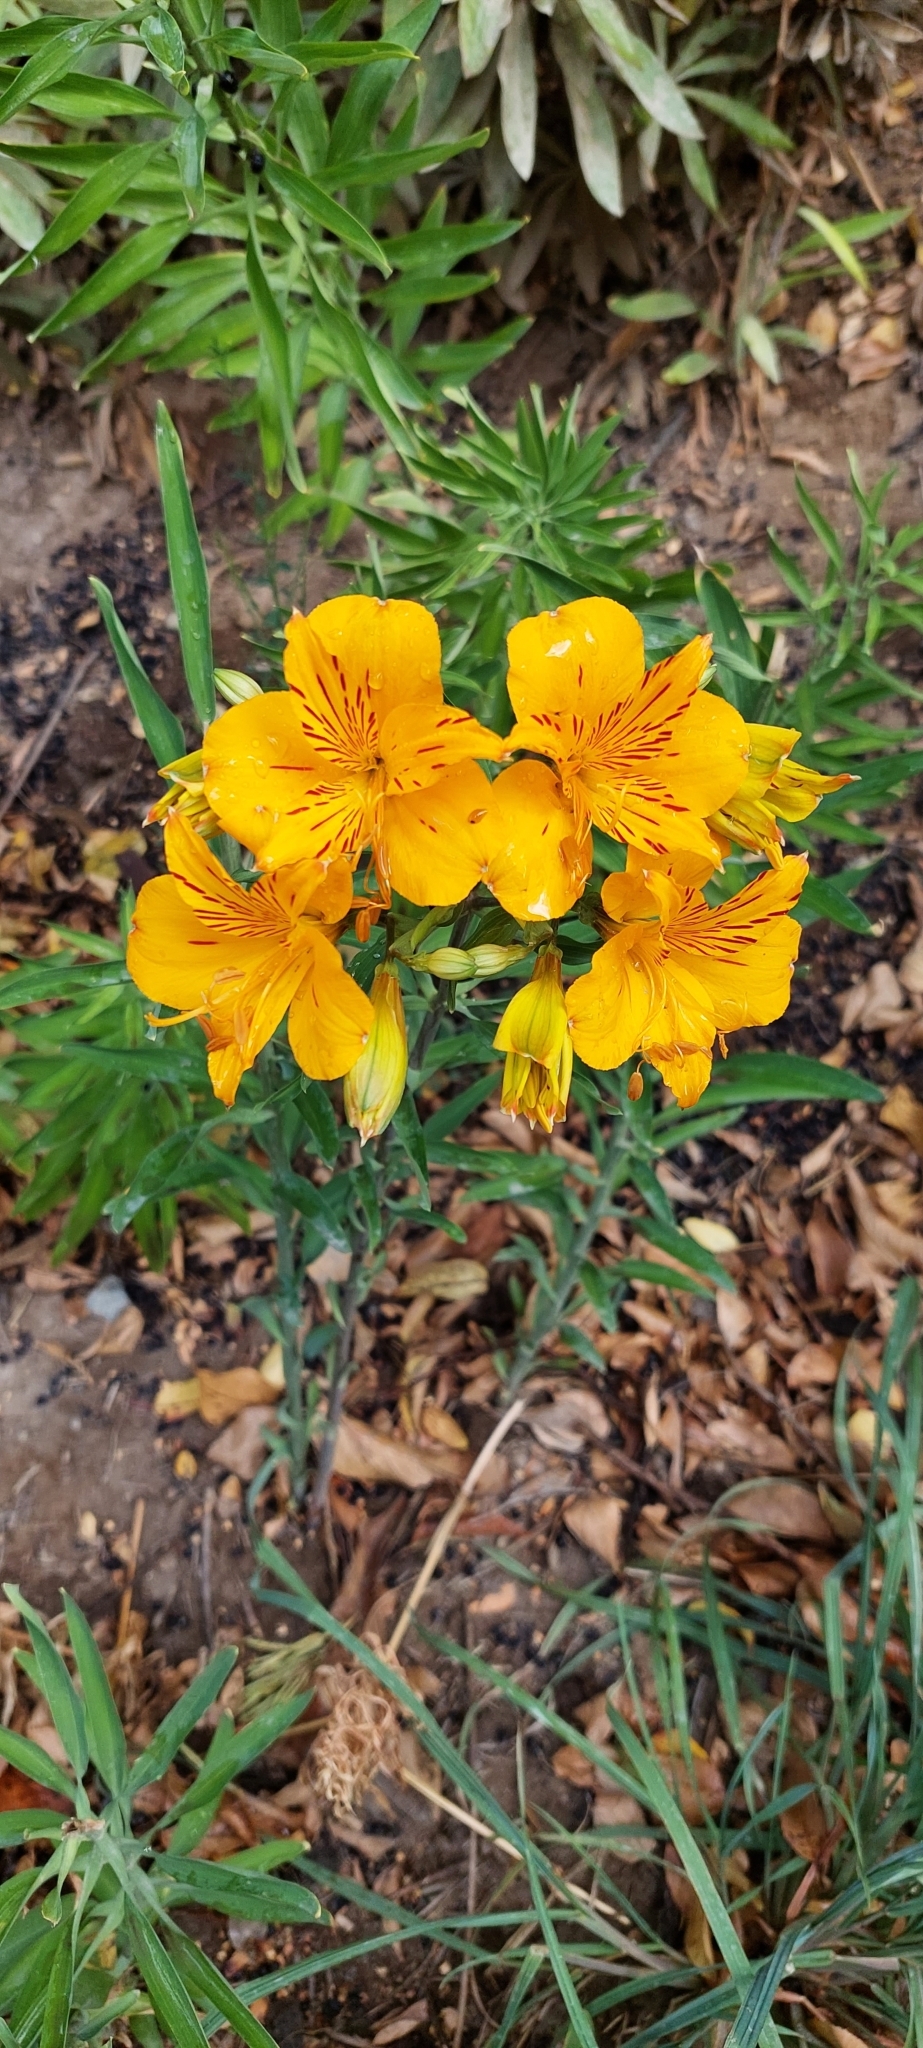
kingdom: Plantae
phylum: Tracheophyta
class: Liliopsida
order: Liliales
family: Alstroemeriaceae
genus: Alstroemeria
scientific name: Alstroemeria aurea
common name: Peruvian lily
